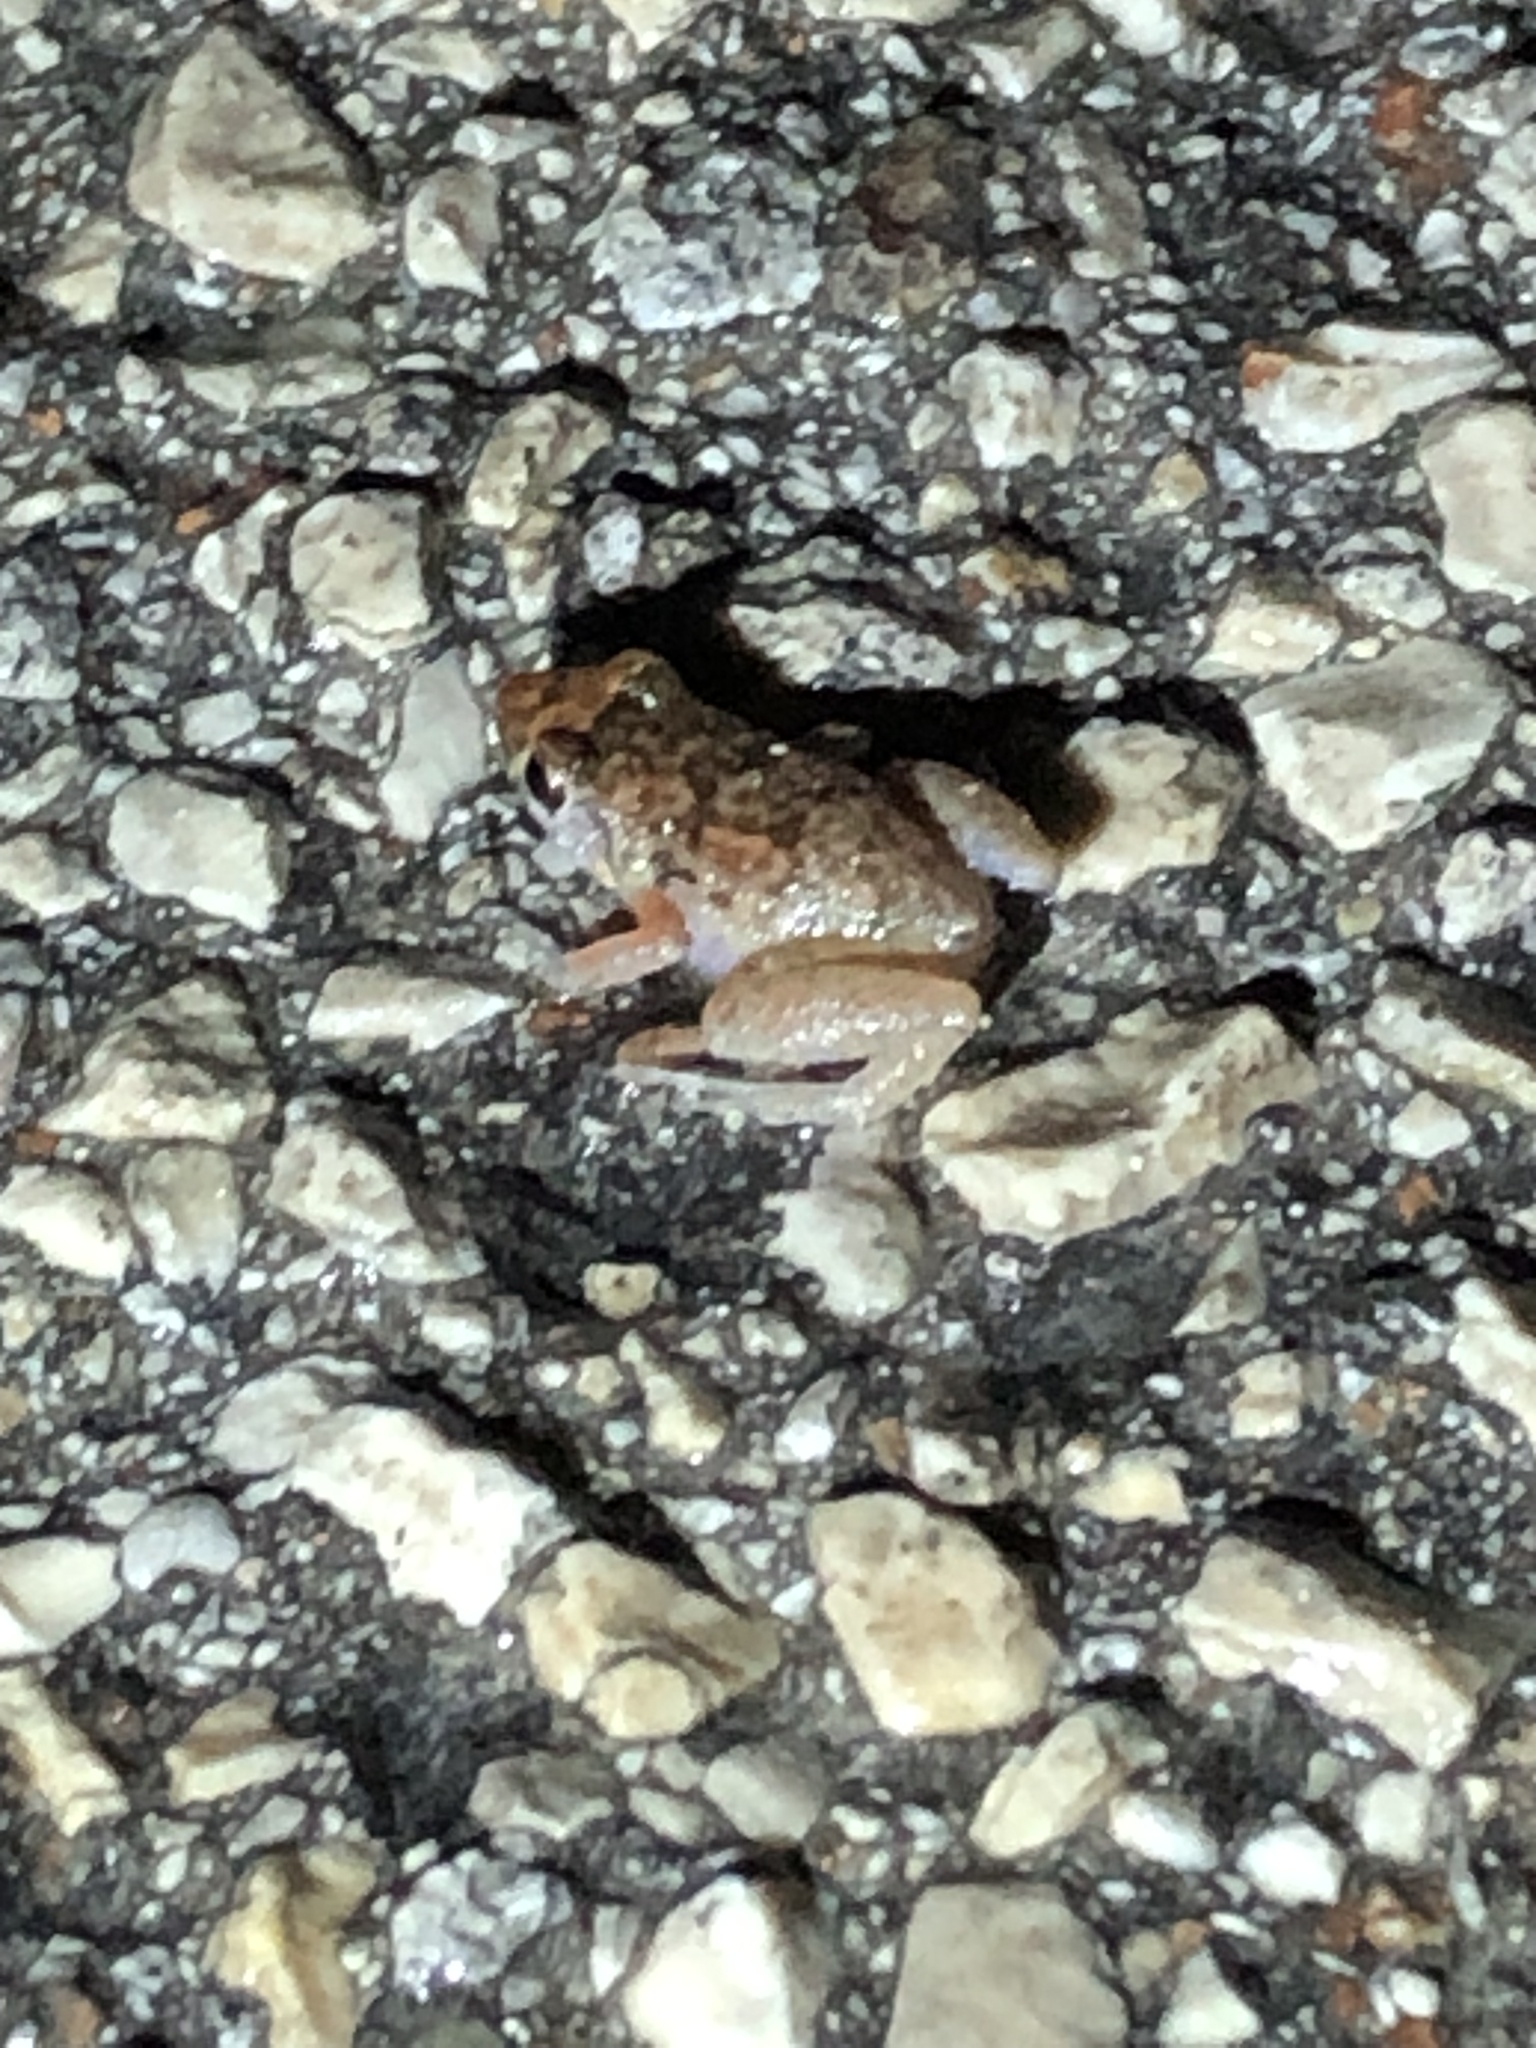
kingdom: Animalia
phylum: Chordata
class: Amphibia
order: Anura
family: Eleutherodactylidae
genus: Eleutherodactylus
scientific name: Eleutherodactylus planirostris
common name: Greenhouse frog
